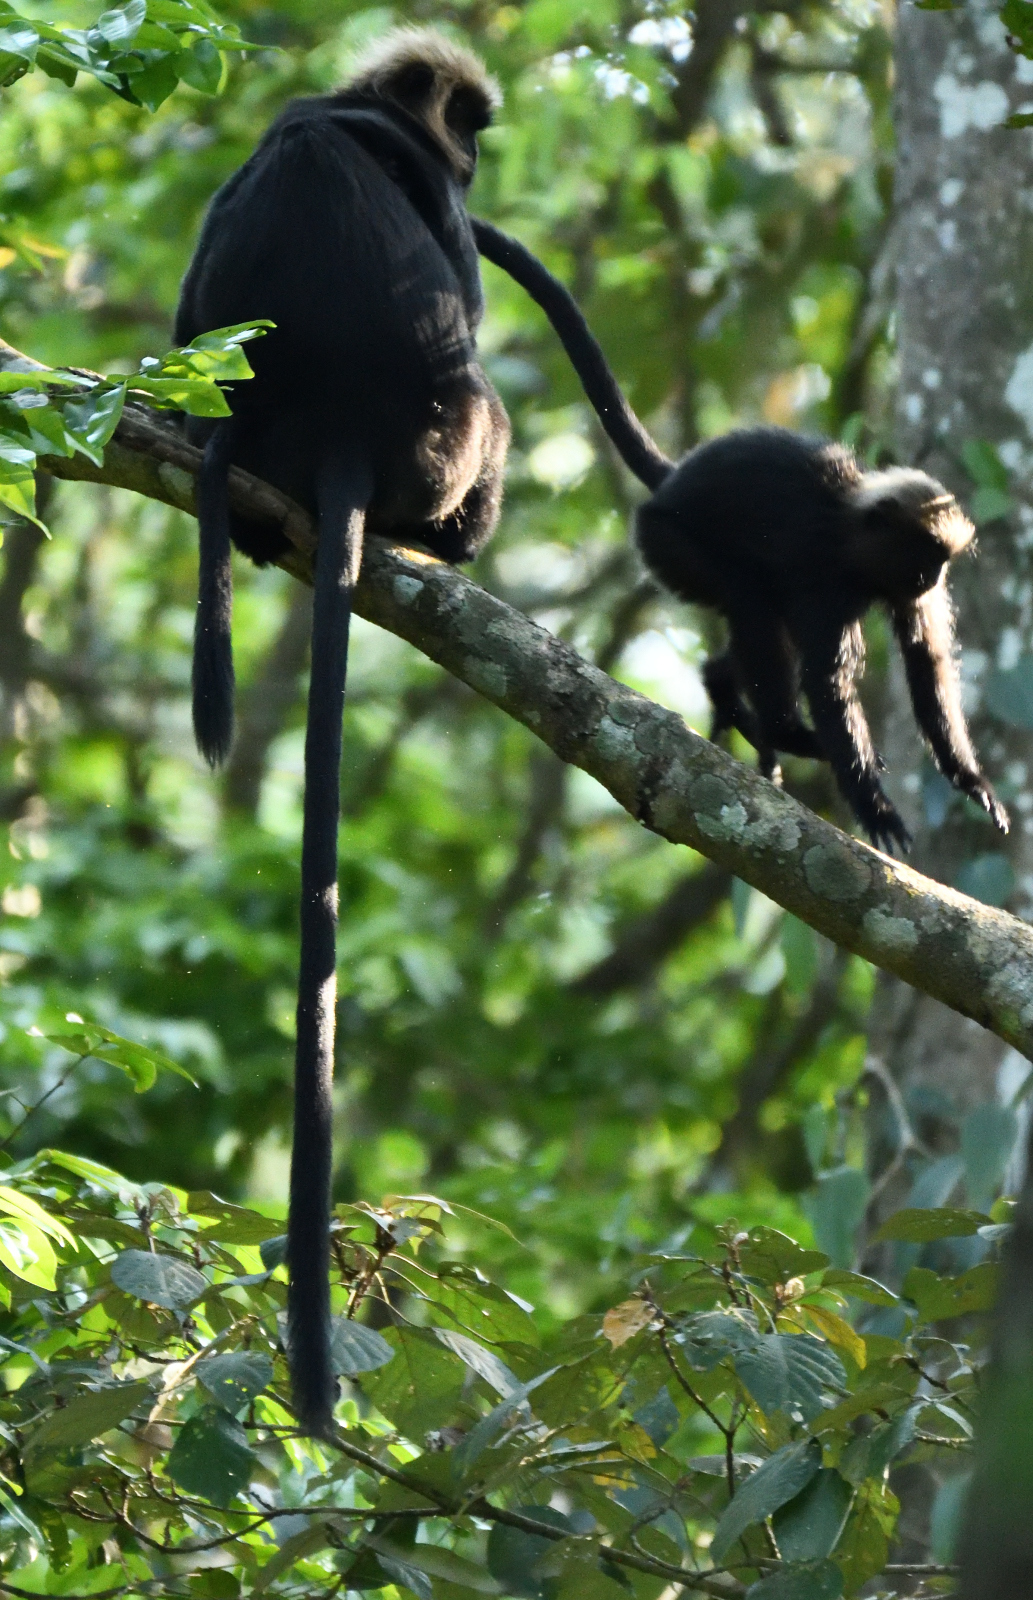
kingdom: Animalia
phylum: Chordata
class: Mammalia
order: Primates
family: Cercopithecidae
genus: Semnopithecus
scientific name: Semnopithecus johnii
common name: Nilgiri langur
